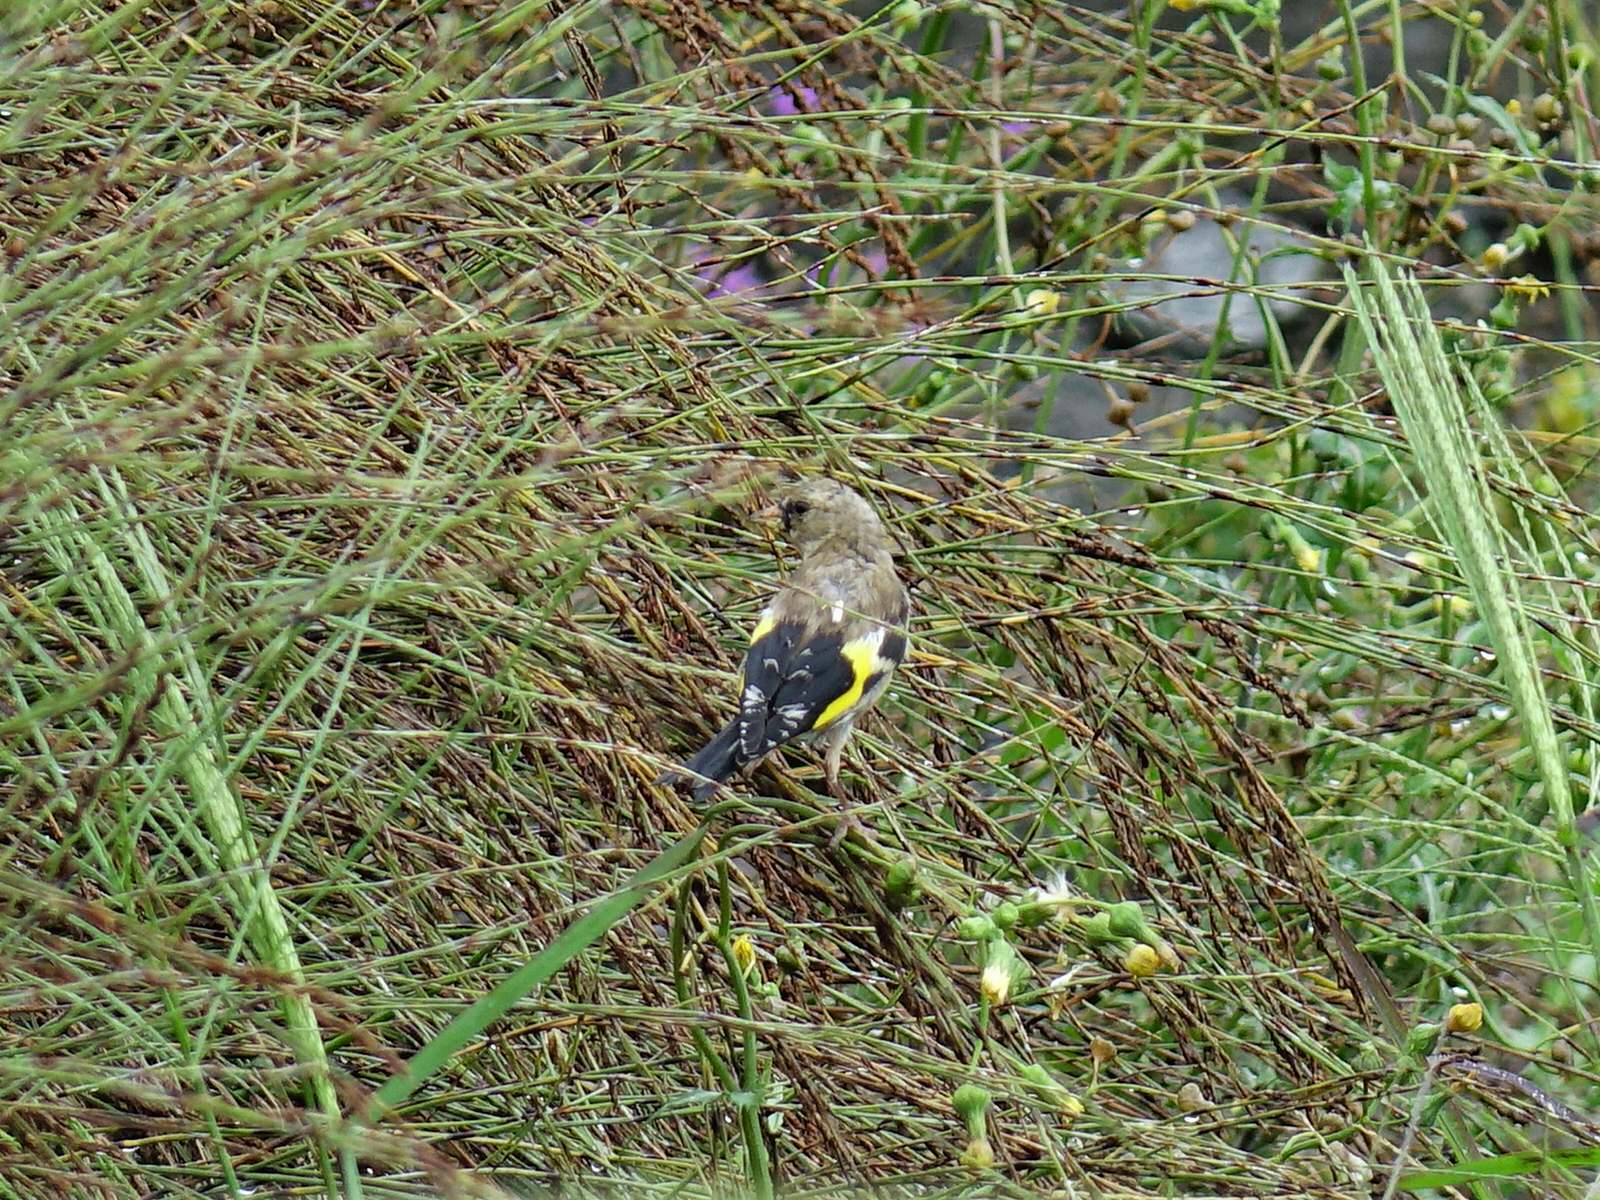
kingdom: Animalia
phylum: Chordata
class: Aves
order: Passeriformes
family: Fringillidae
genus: Carduelis
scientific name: Carduelis carduelis
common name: European goldfinch
